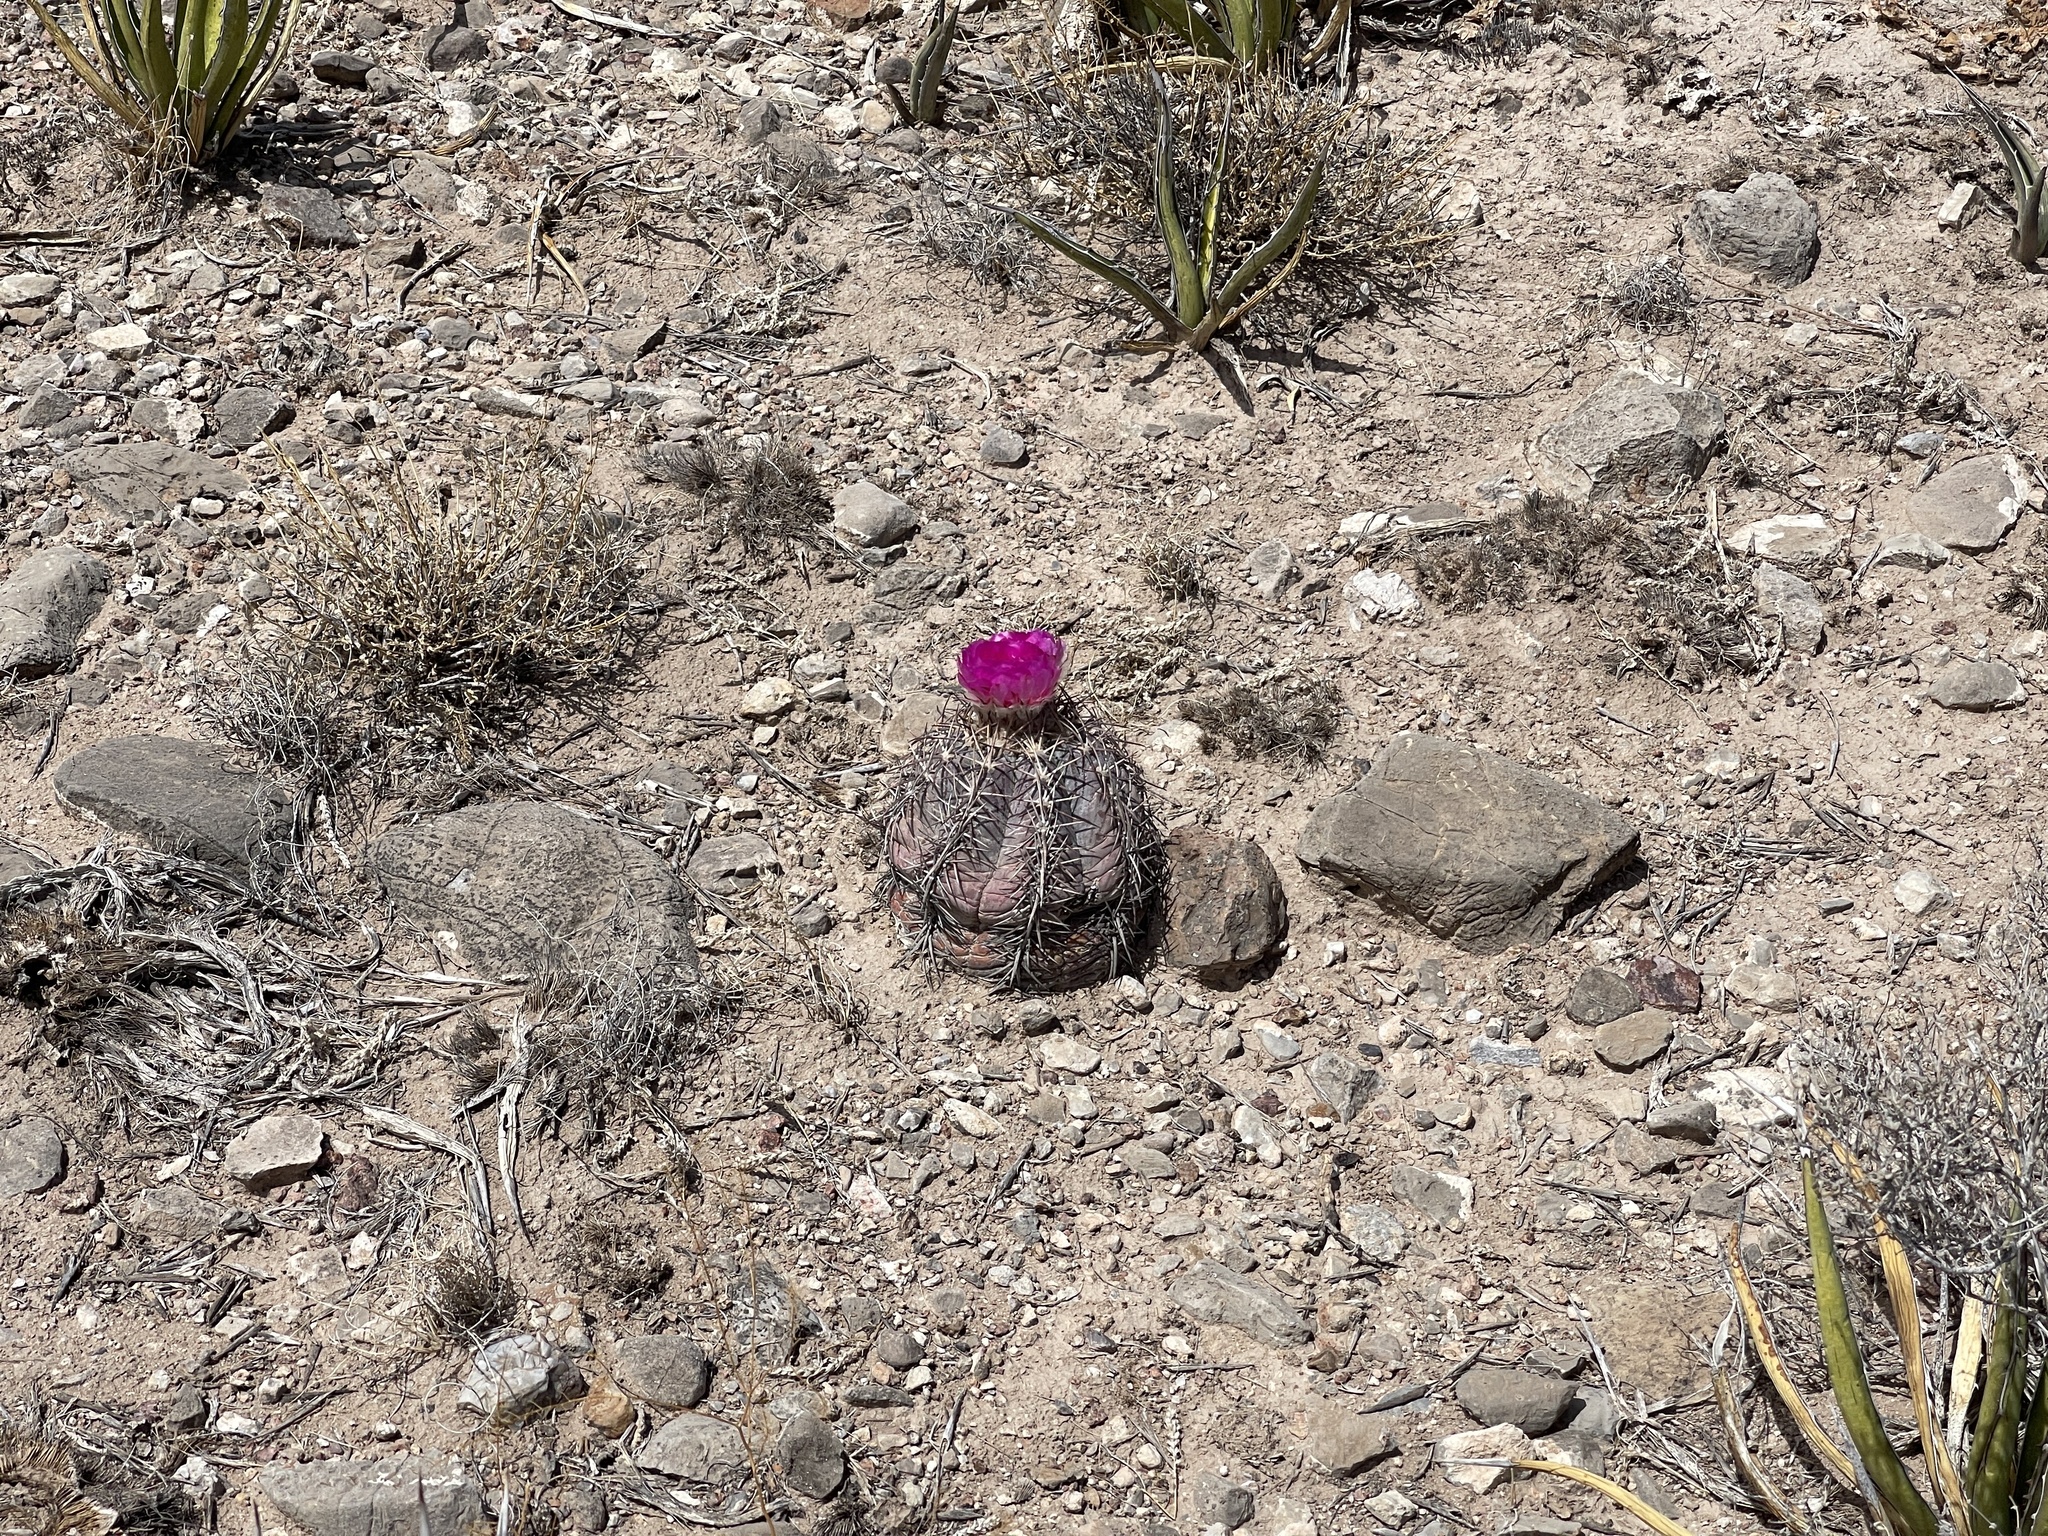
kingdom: Plantae
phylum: Tracheophyta
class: Magnoliopsida
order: Caryophyllales
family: Cactaceae
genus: Echinocactus
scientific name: Echinocactus horizonthalonius
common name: Devilshead
